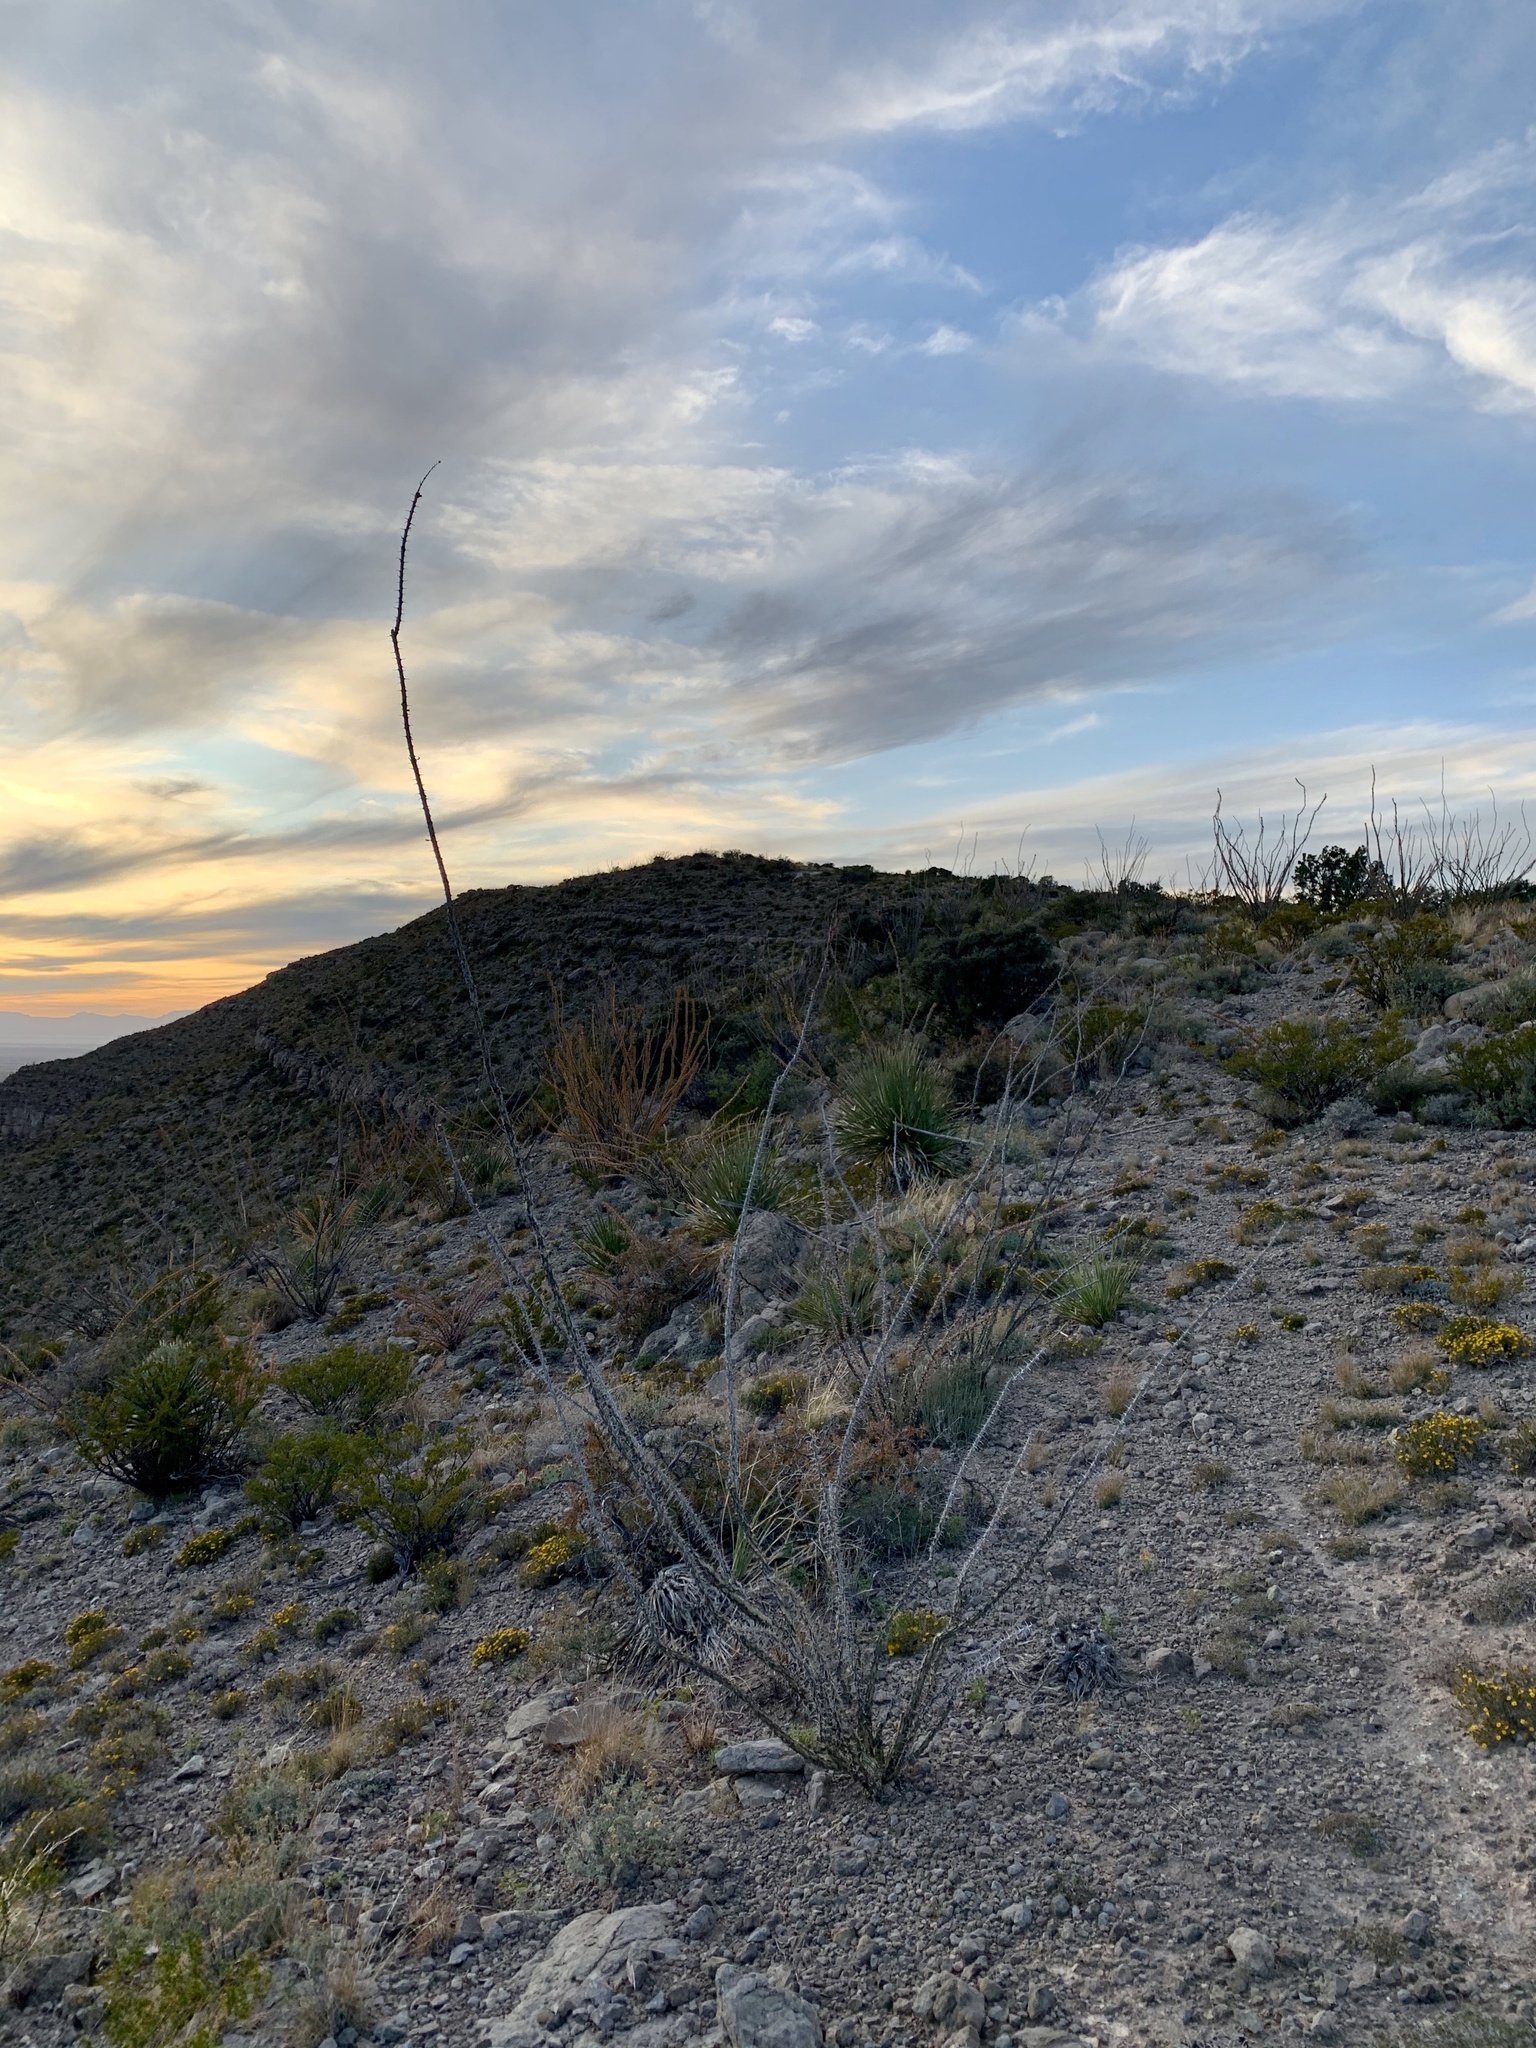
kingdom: Plantae
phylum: Tracheophyta
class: Magnoliopsida
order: Ericales
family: Fouquieriaceae
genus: Fouquieria
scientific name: Fouquieria splendens
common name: Vine-cactus
